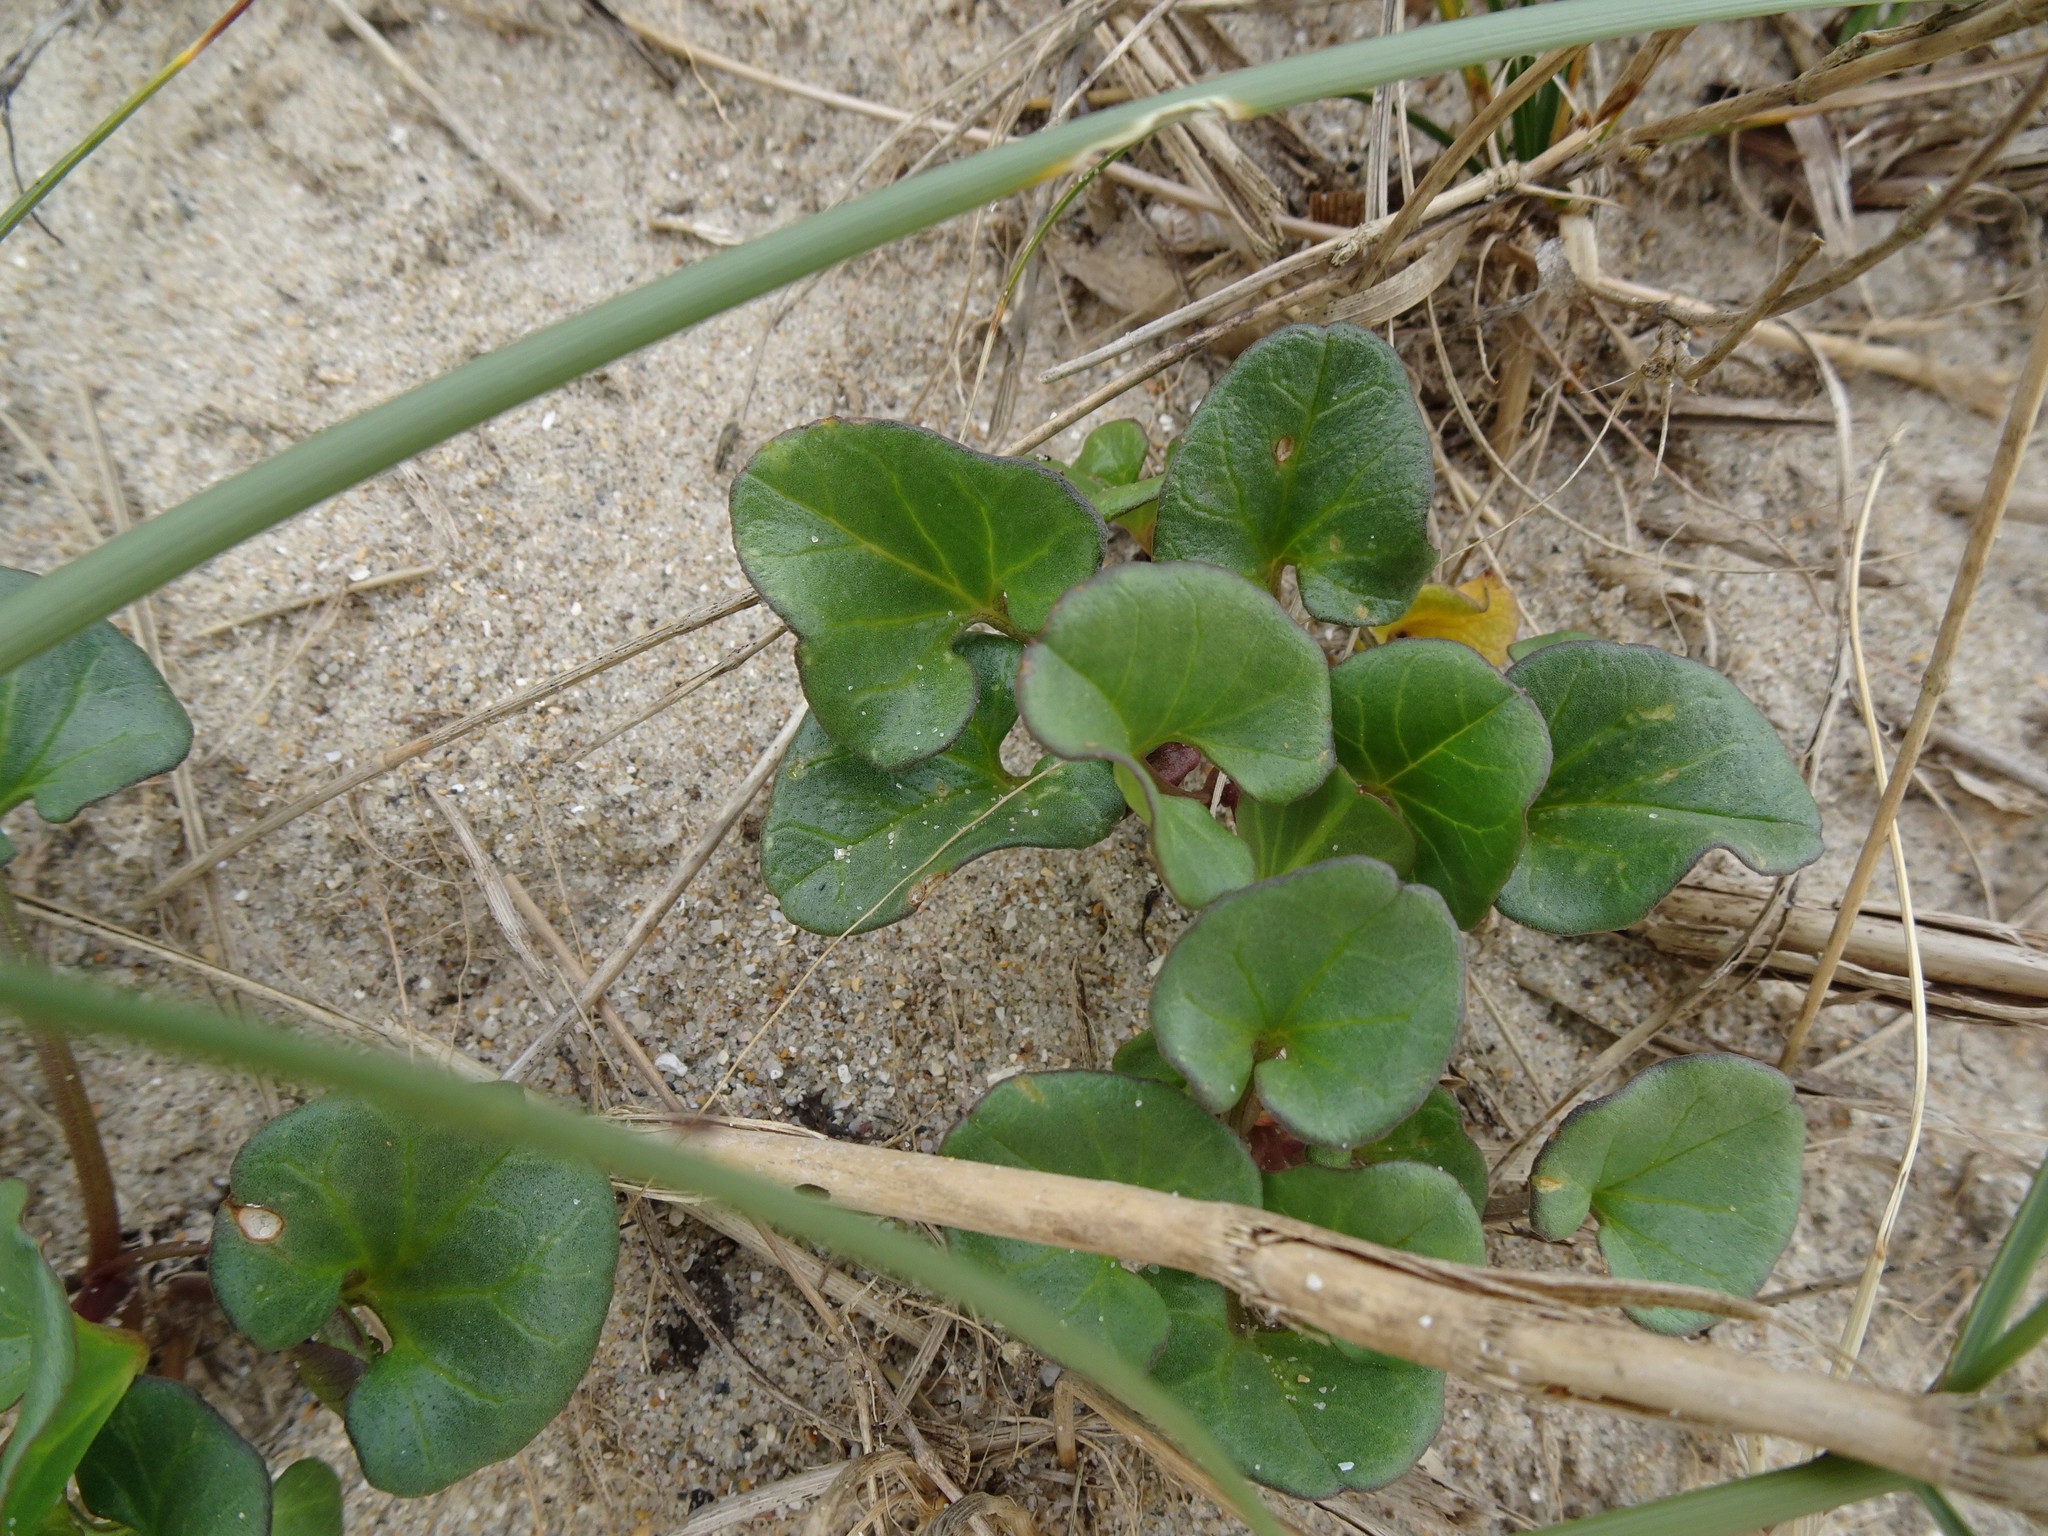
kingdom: Plantae
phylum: Tracheophyta
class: Magnoliopsida
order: Solanales
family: Convolvulaceae
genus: Calystegia
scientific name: Calystegia soldanella
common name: Sea bindweed
